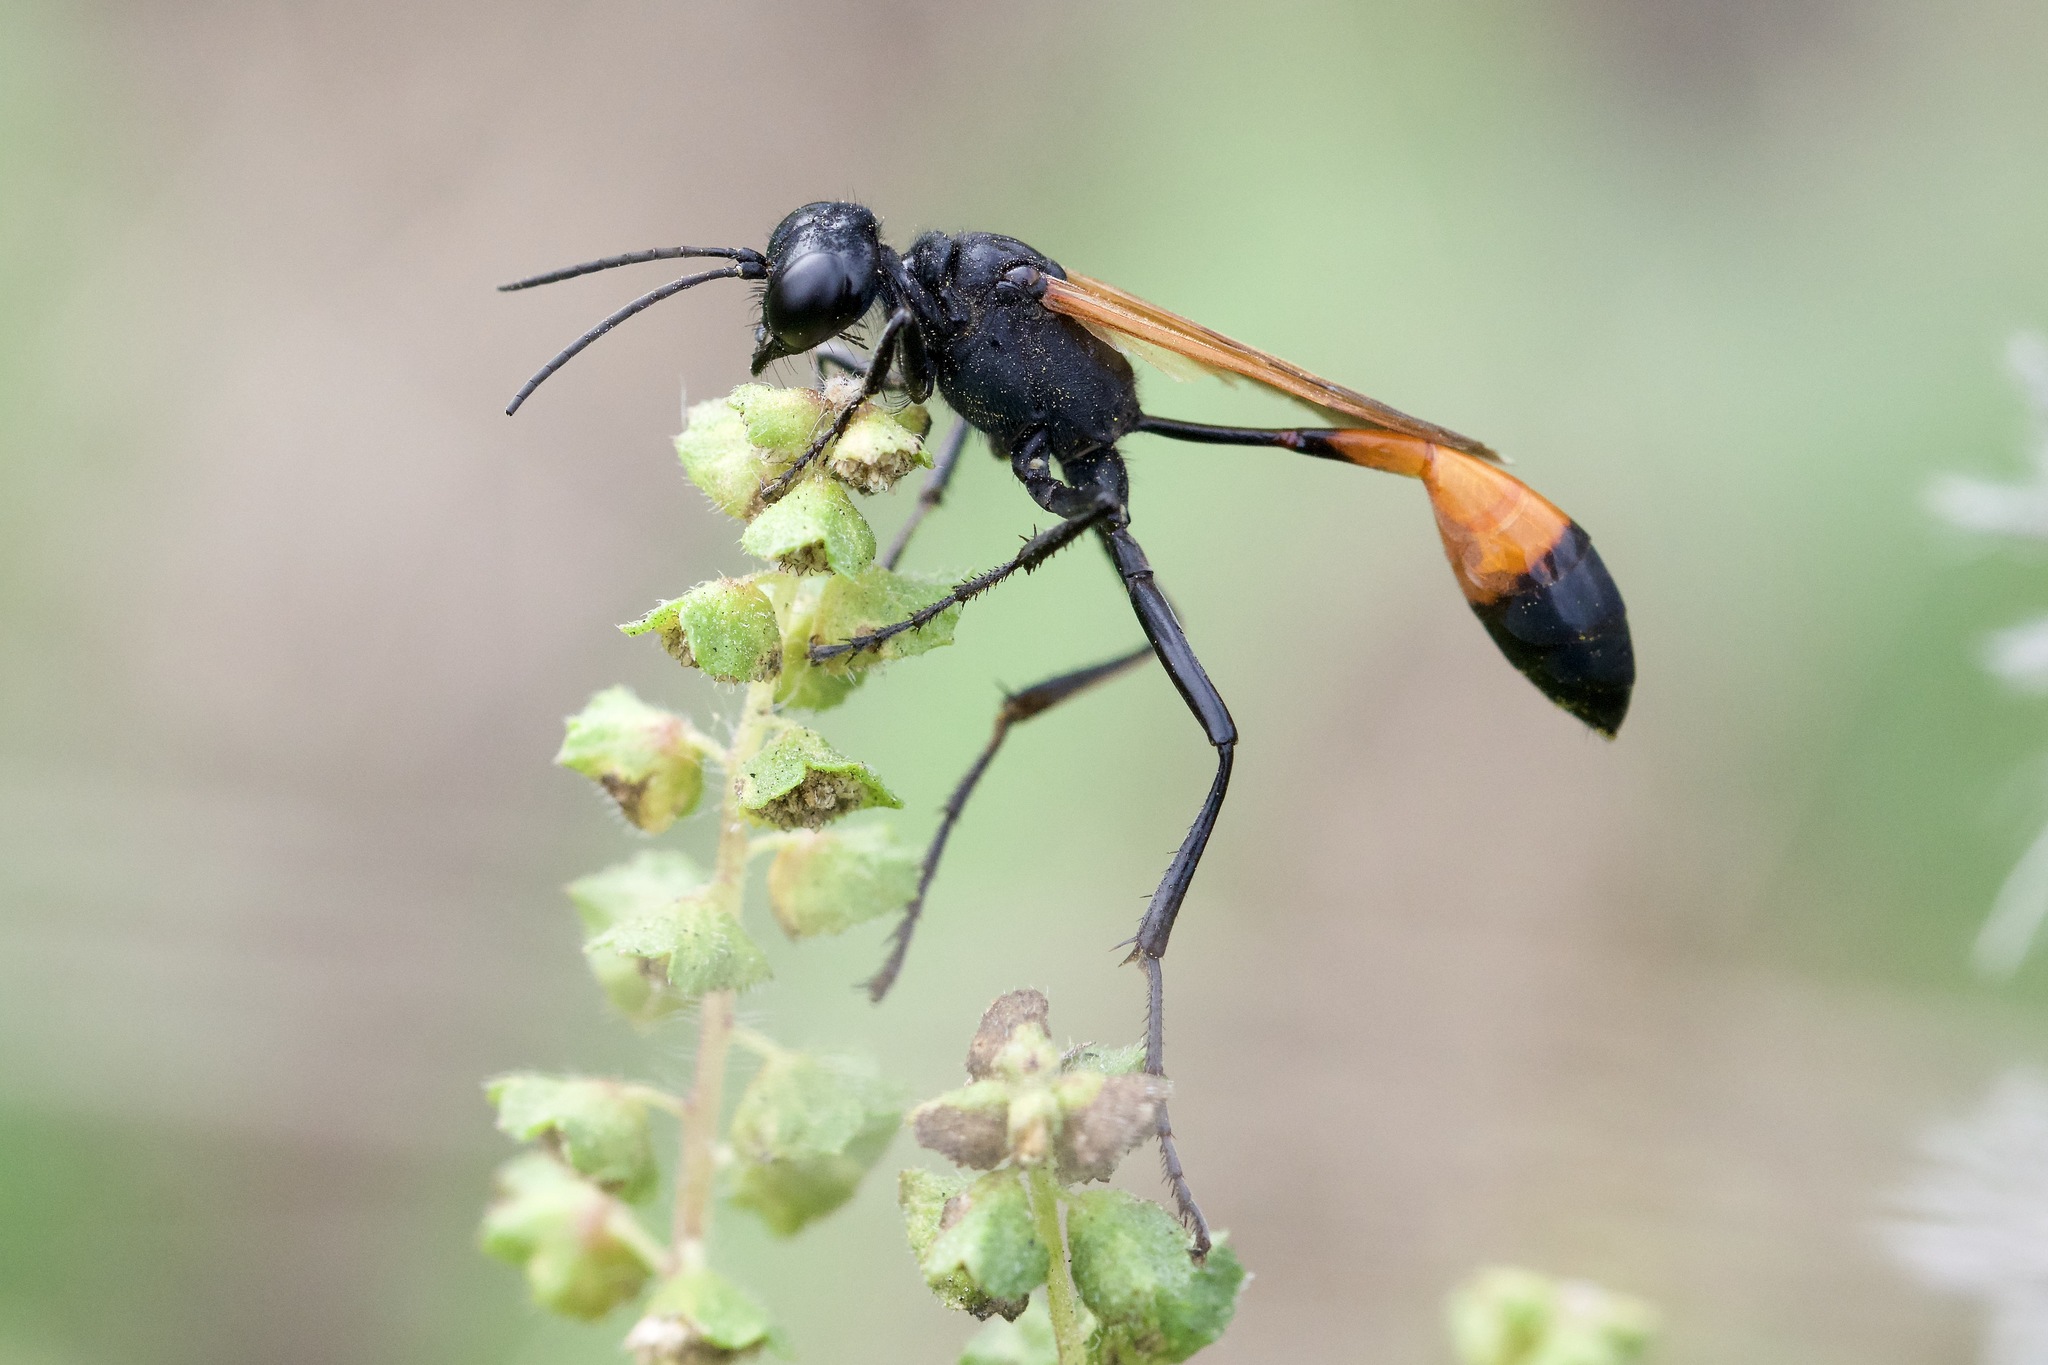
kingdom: Animalia
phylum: Arthropoda
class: Insecta
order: Hymenoptera
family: Sphecidae
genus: Ammophila
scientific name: Ammophila pictipennis
